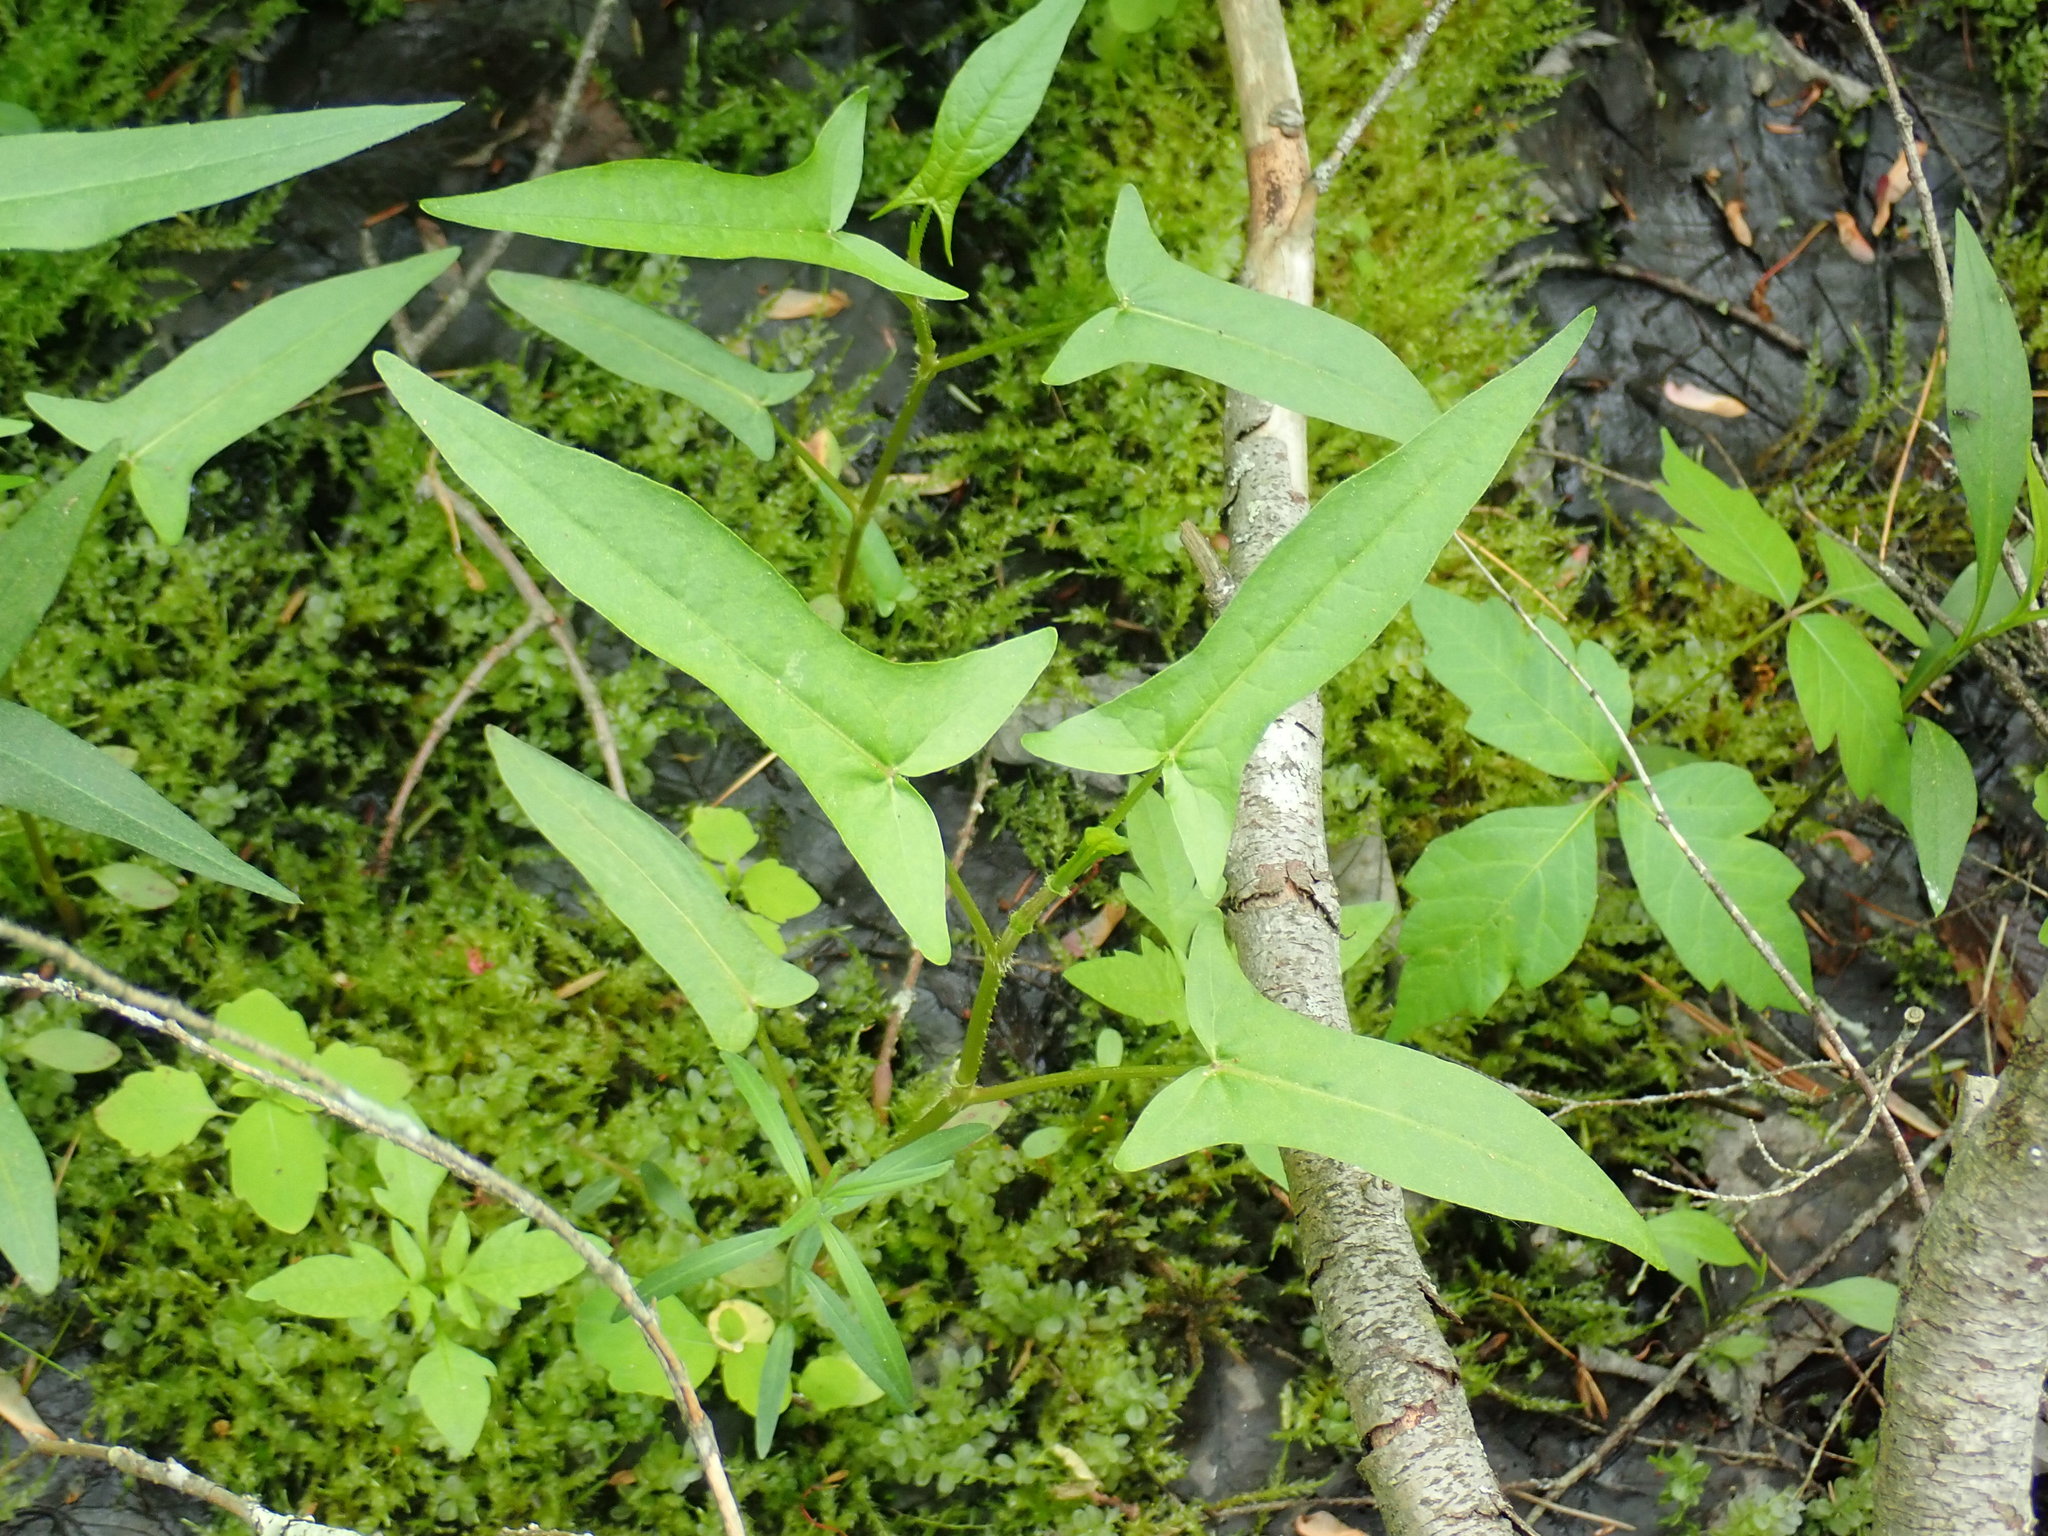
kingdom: Plantae
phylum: Tracheophyta
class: Magnoliopsida
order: Caryophyllales
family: Polygonaceae
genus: Persicaria
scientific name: Persicaria arifolia
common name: Halberd-leaved tear-thumb
